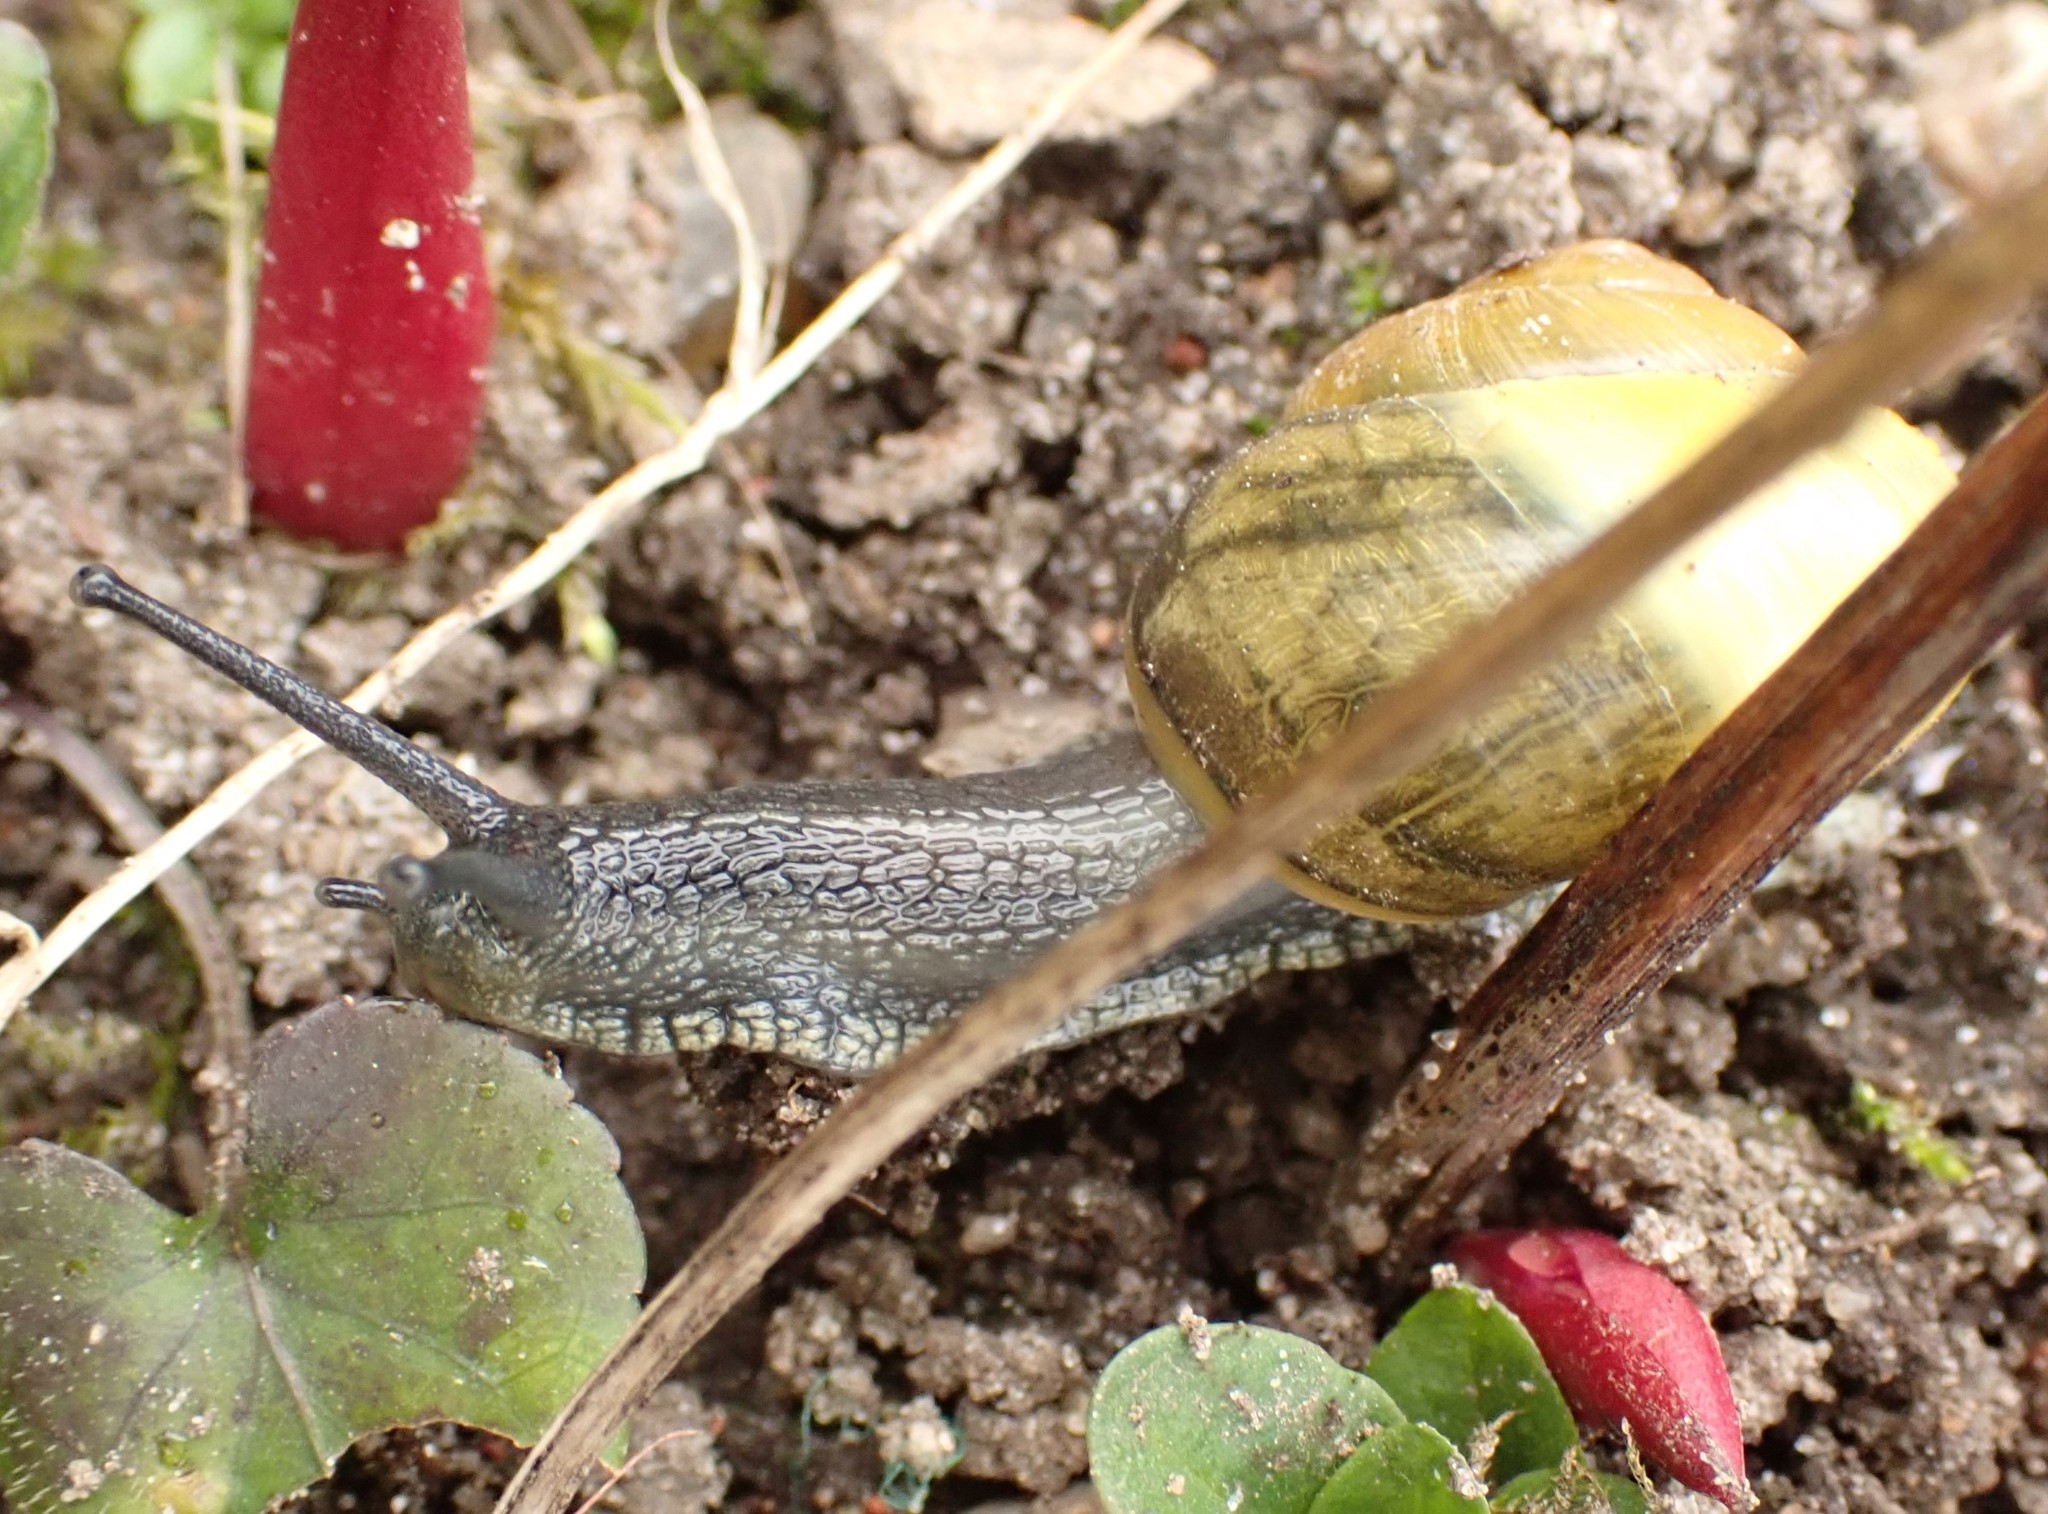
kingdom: Animalia
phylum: Mollusca
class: Gastropoda
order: Stylommatophora
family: Helicidae
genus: Cepaea
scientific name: Cepaea
